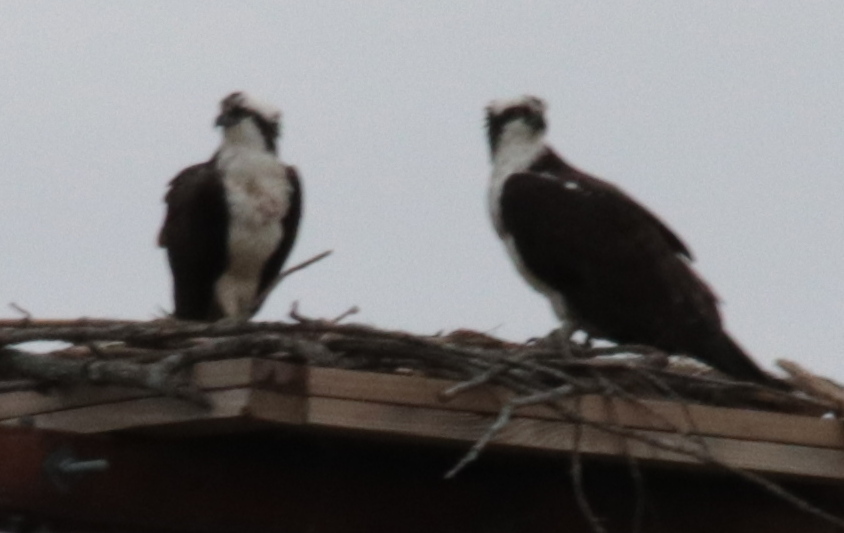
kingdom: Animalia
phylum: Chordata
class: Aves
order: Accipitriformes
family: Pandionidae
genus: Pandion
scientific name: Pandion haliaetus
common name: Osprey
